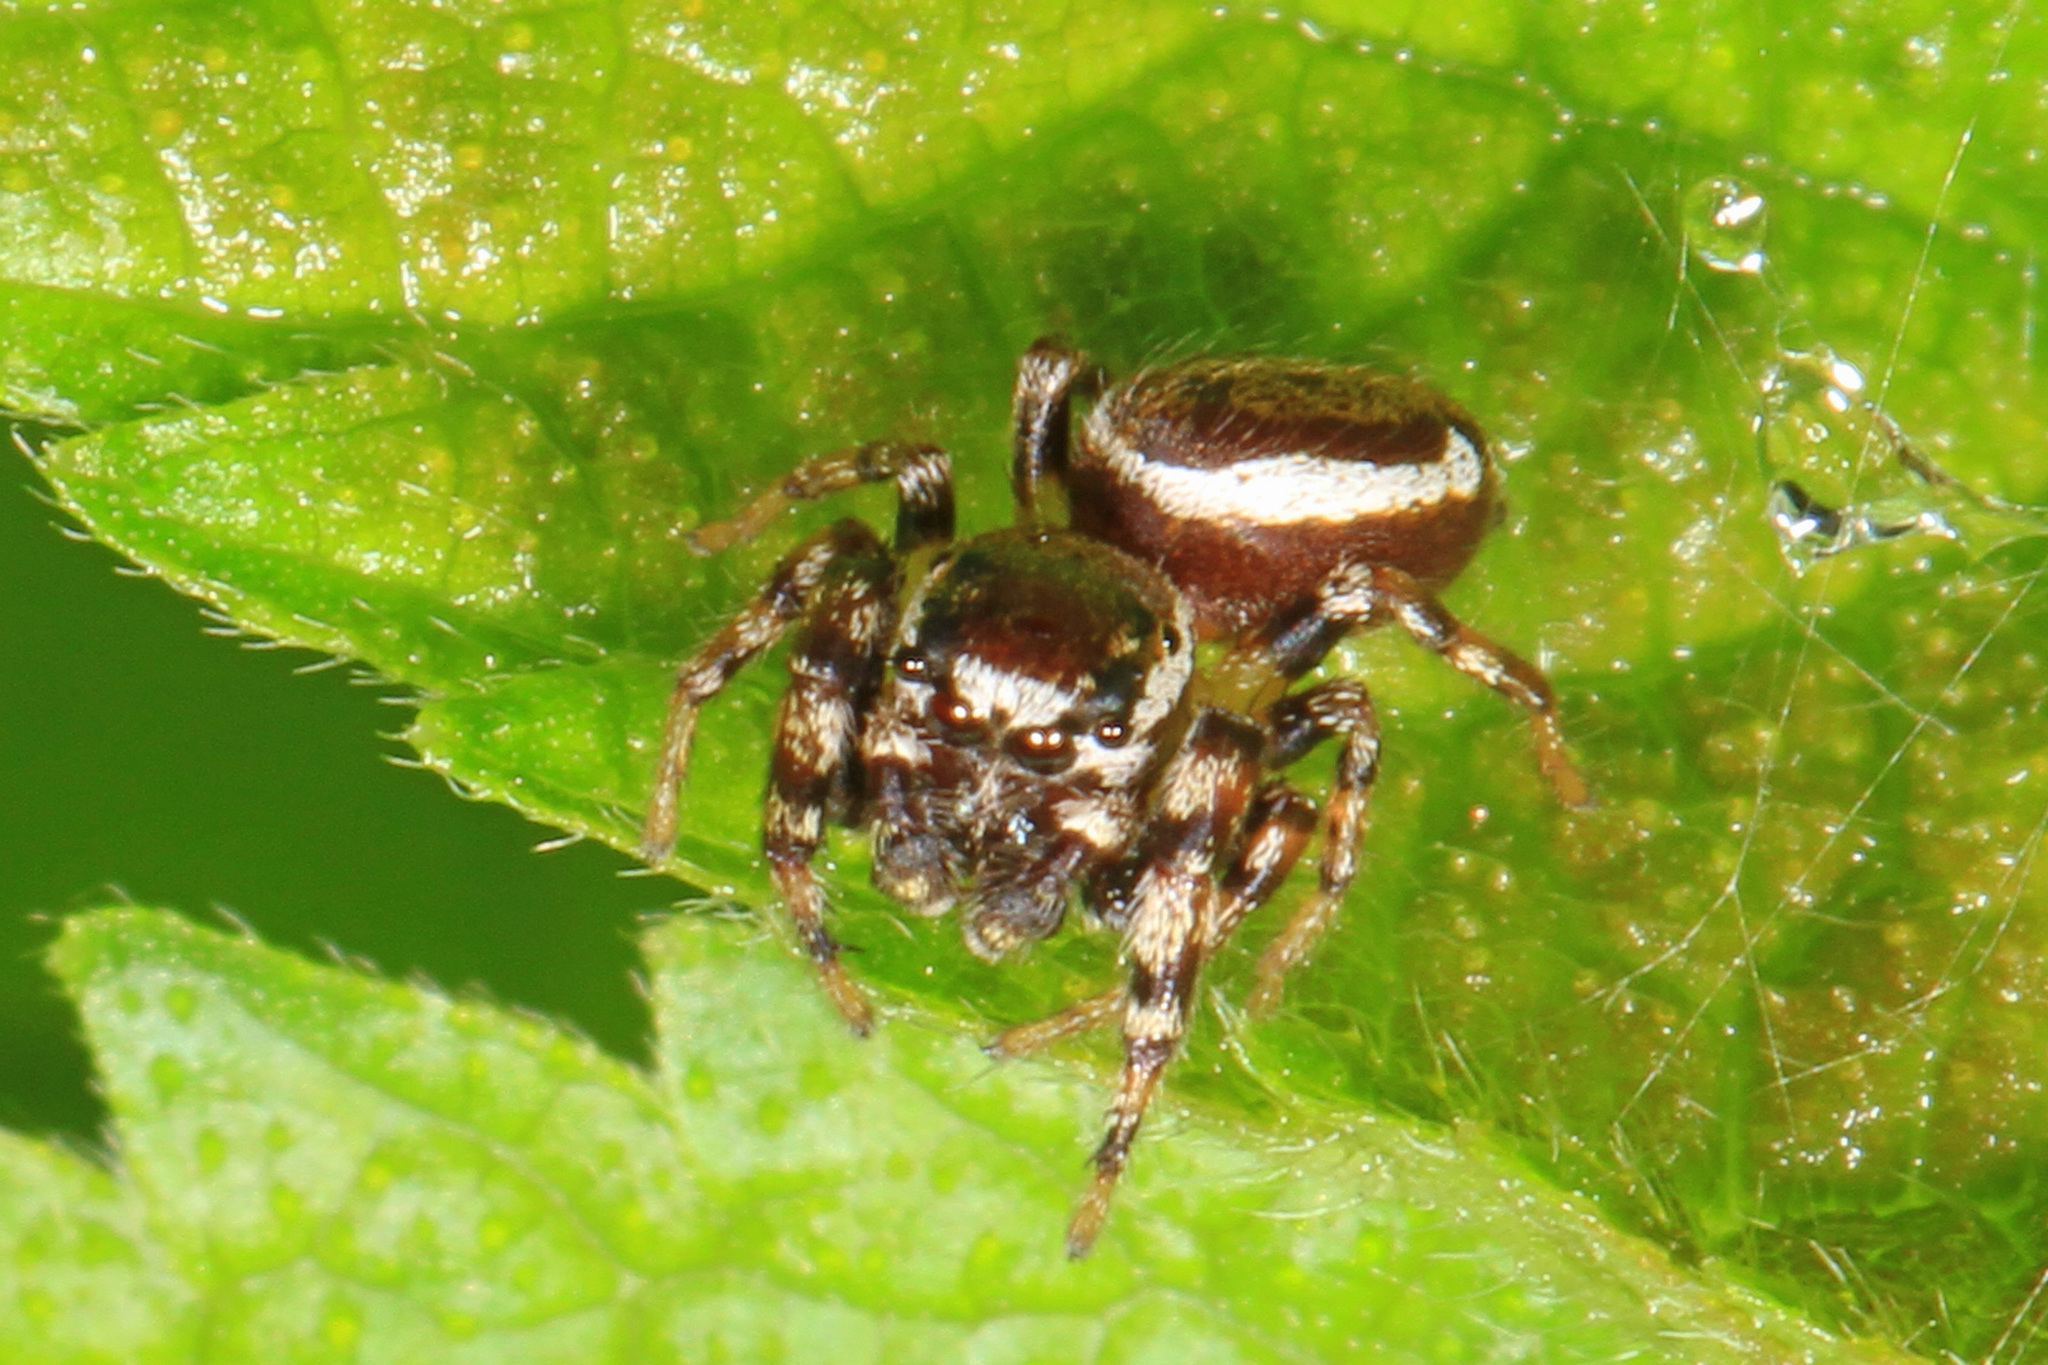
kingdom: Animalia
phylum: Arthropoda
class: Arachnida
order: Araneae
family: Salticidae
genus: Pelegrina
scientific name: Pelegrina proterva
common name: Common white-cheeked jumping spider
